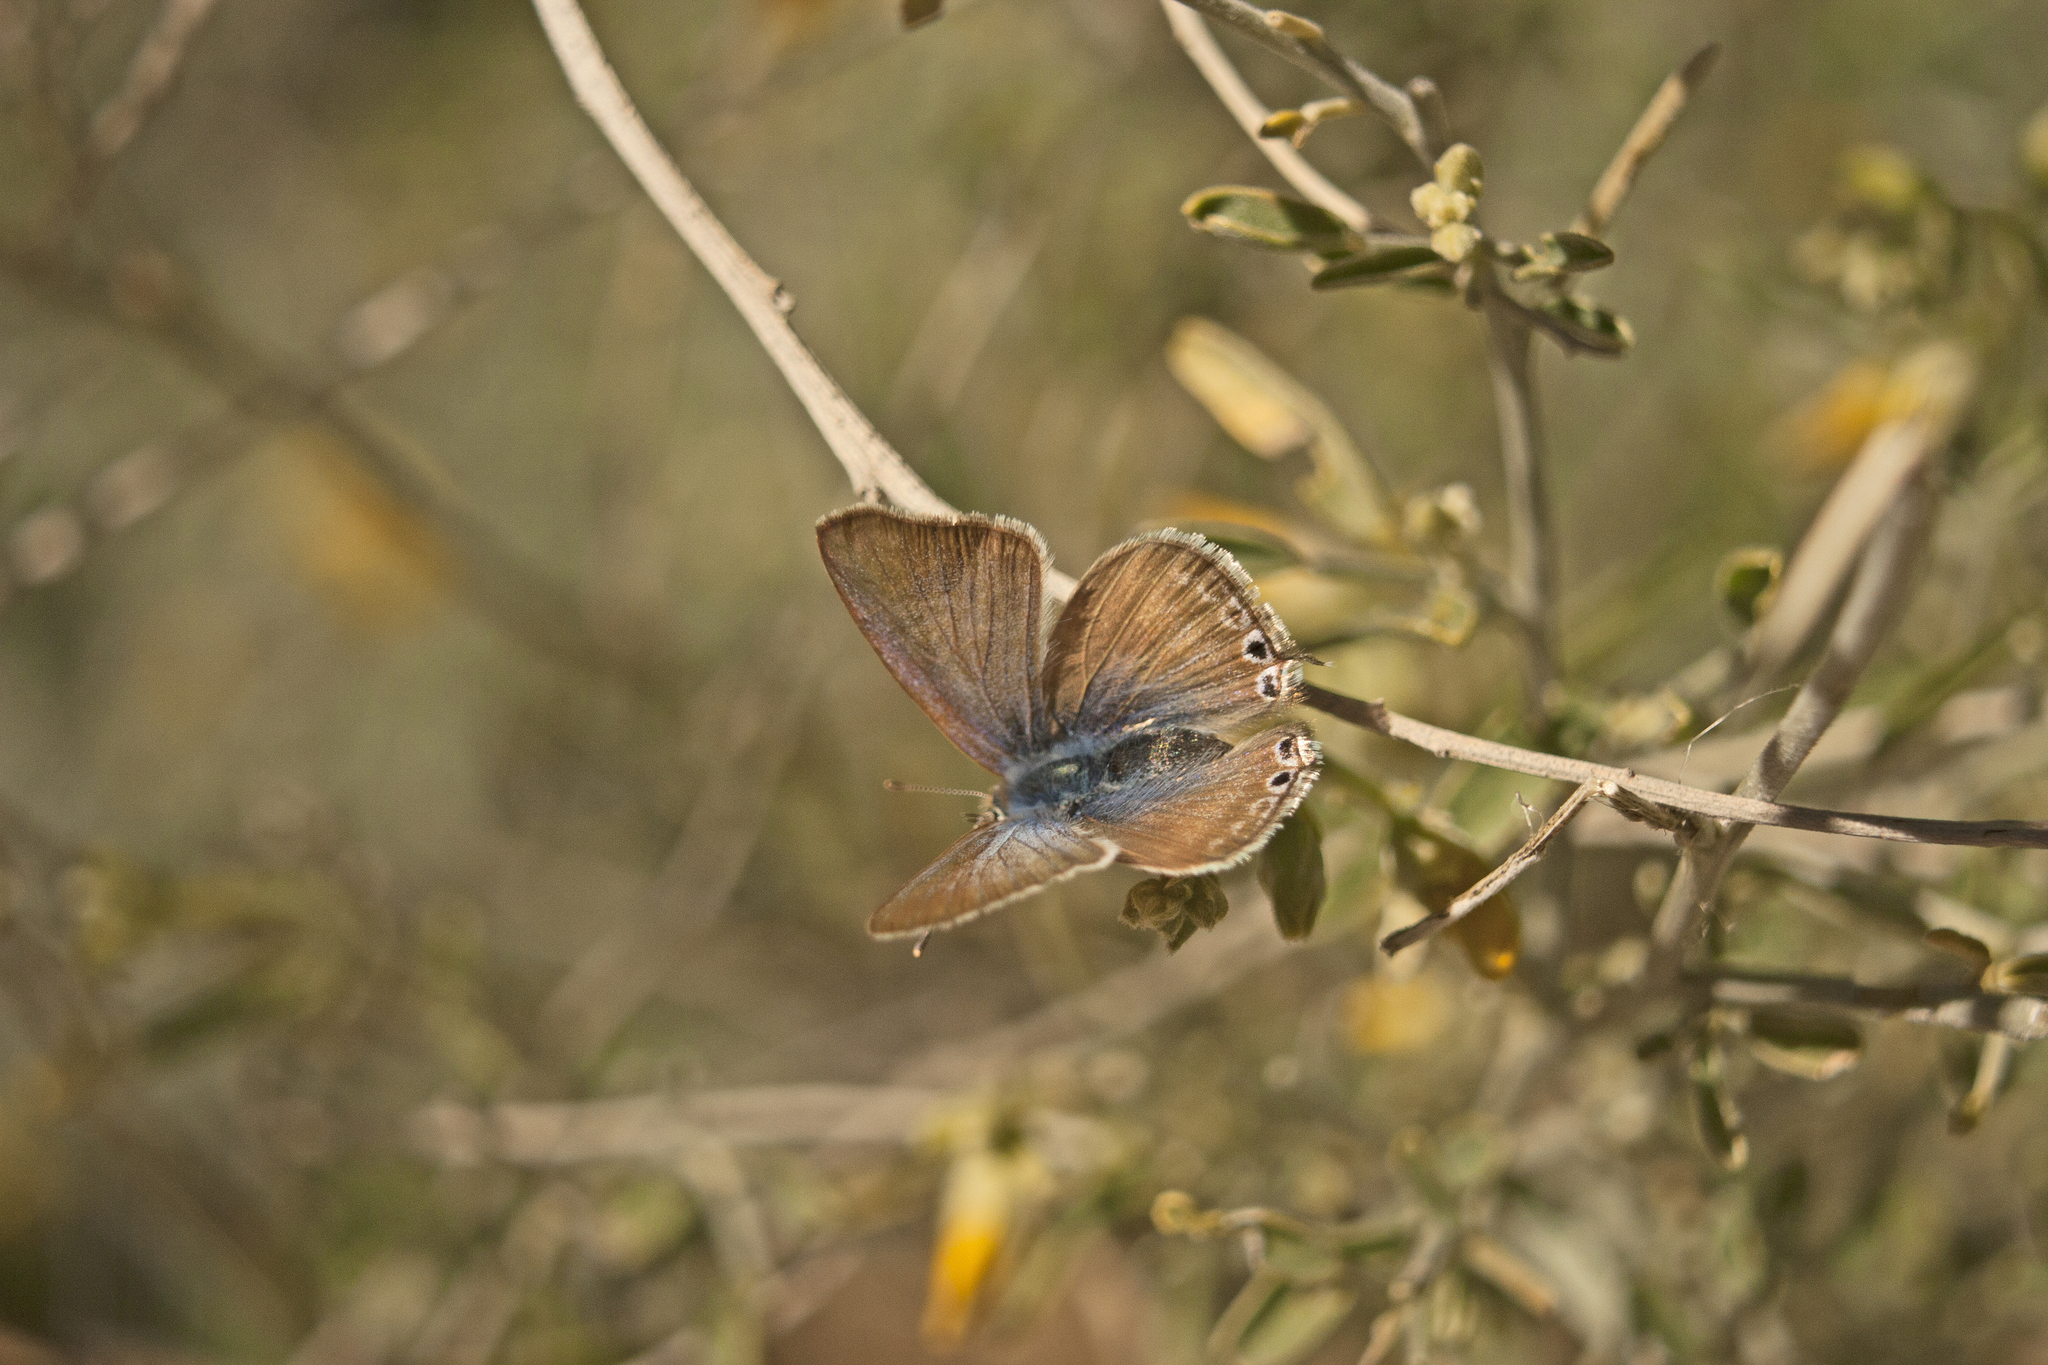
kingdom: Animalia
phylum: Arthropoda
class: Insecta
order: Lepidoptera
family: Lycaenidae
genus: Lampides
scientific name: Lampides boeticus
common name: Long-tailed blue
